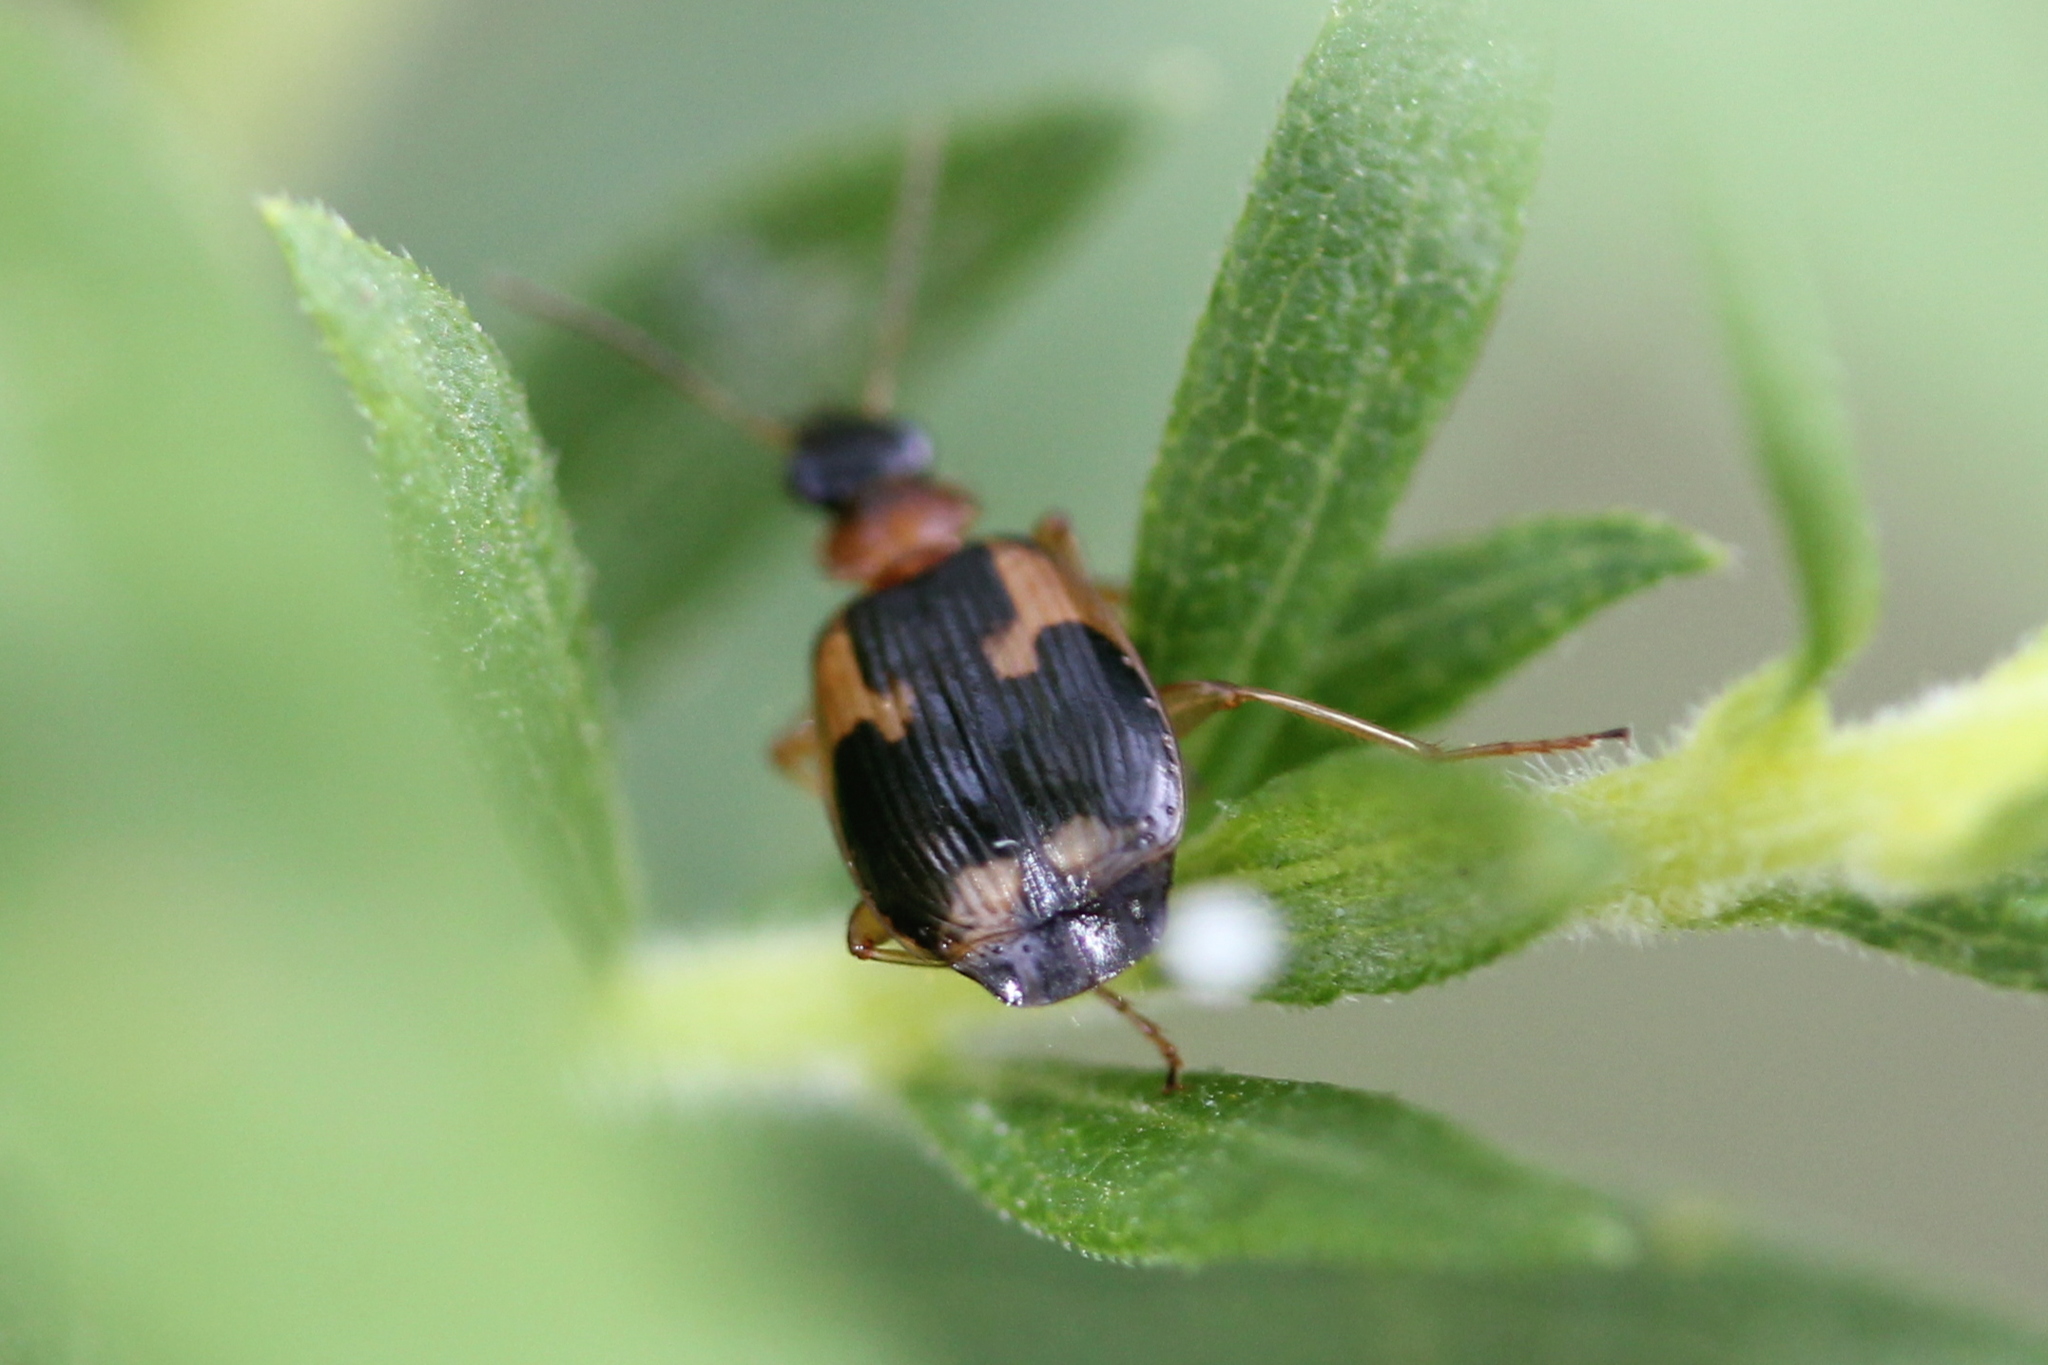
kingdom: Animalia
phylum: Arthropoda
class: Insecta
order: Coleoptera
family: Carabidae
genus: Lebia
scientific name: Lebia analis
